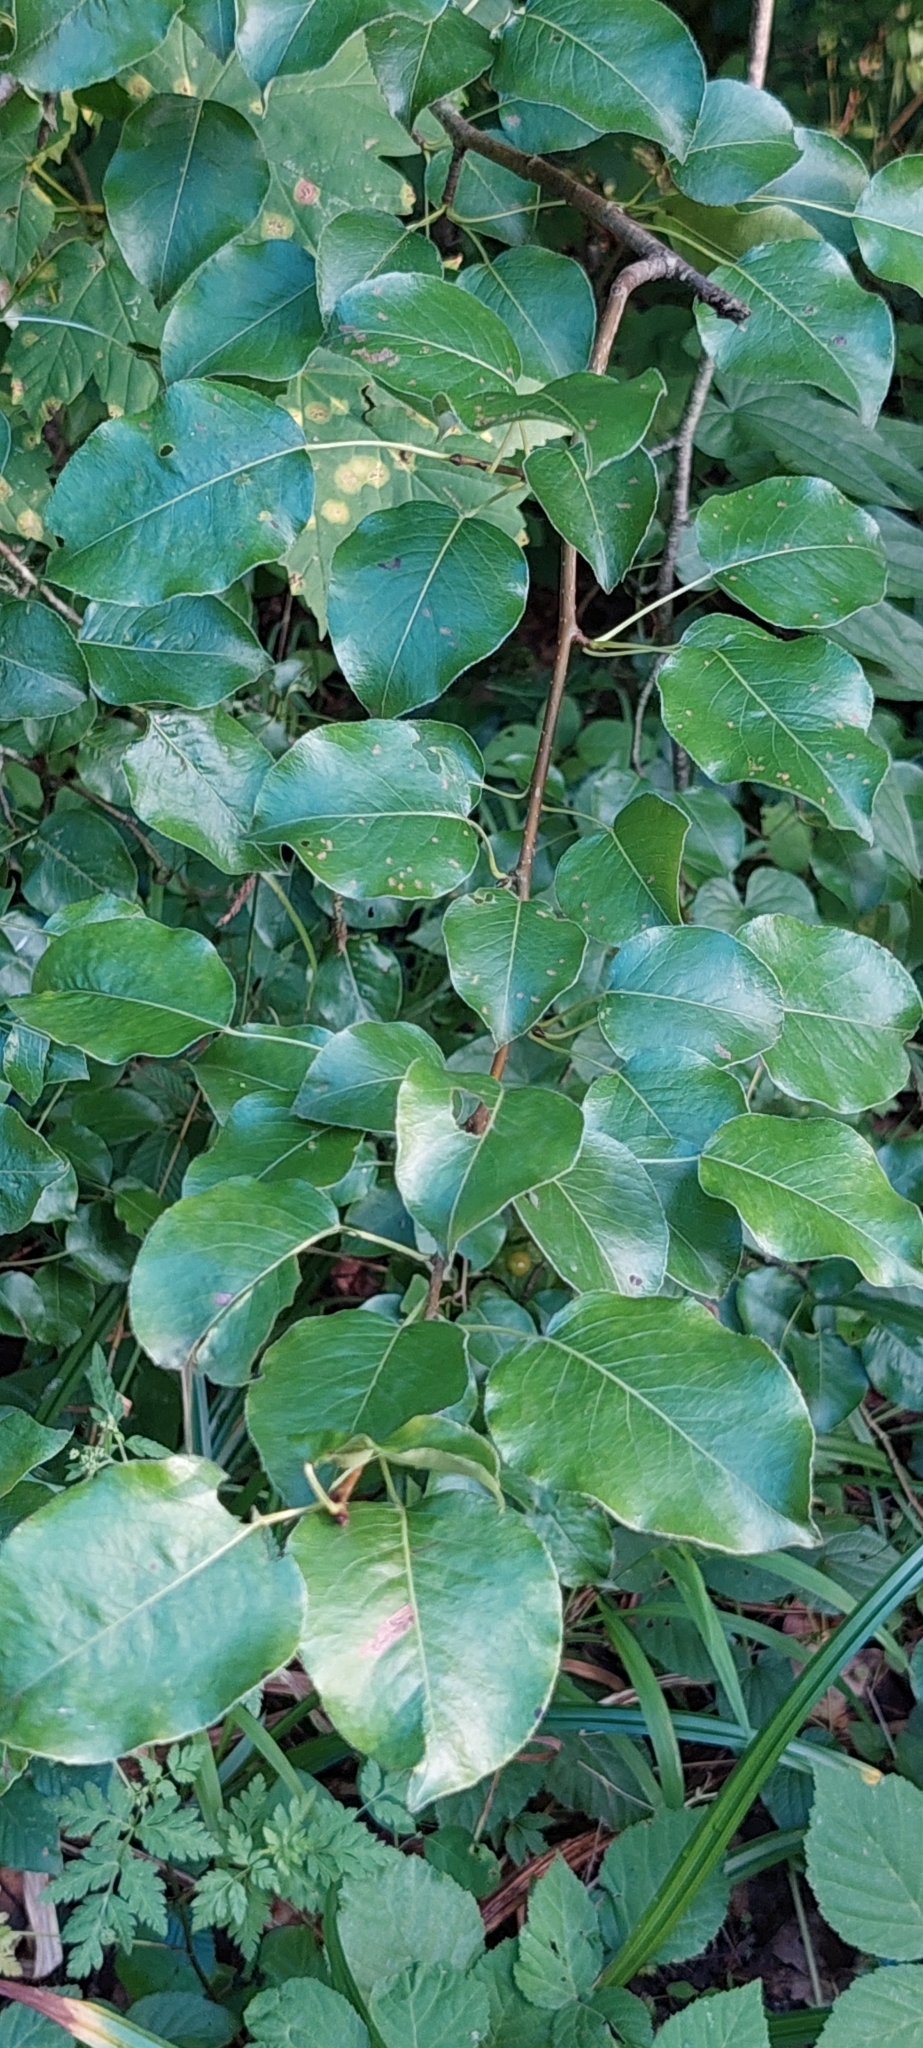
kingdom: Plantae
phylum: Tracheophyta
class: Magnoliopsida
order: Rosales
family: Rosaceae
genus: Pyrus
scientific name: Pyrus communis
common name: Pear
